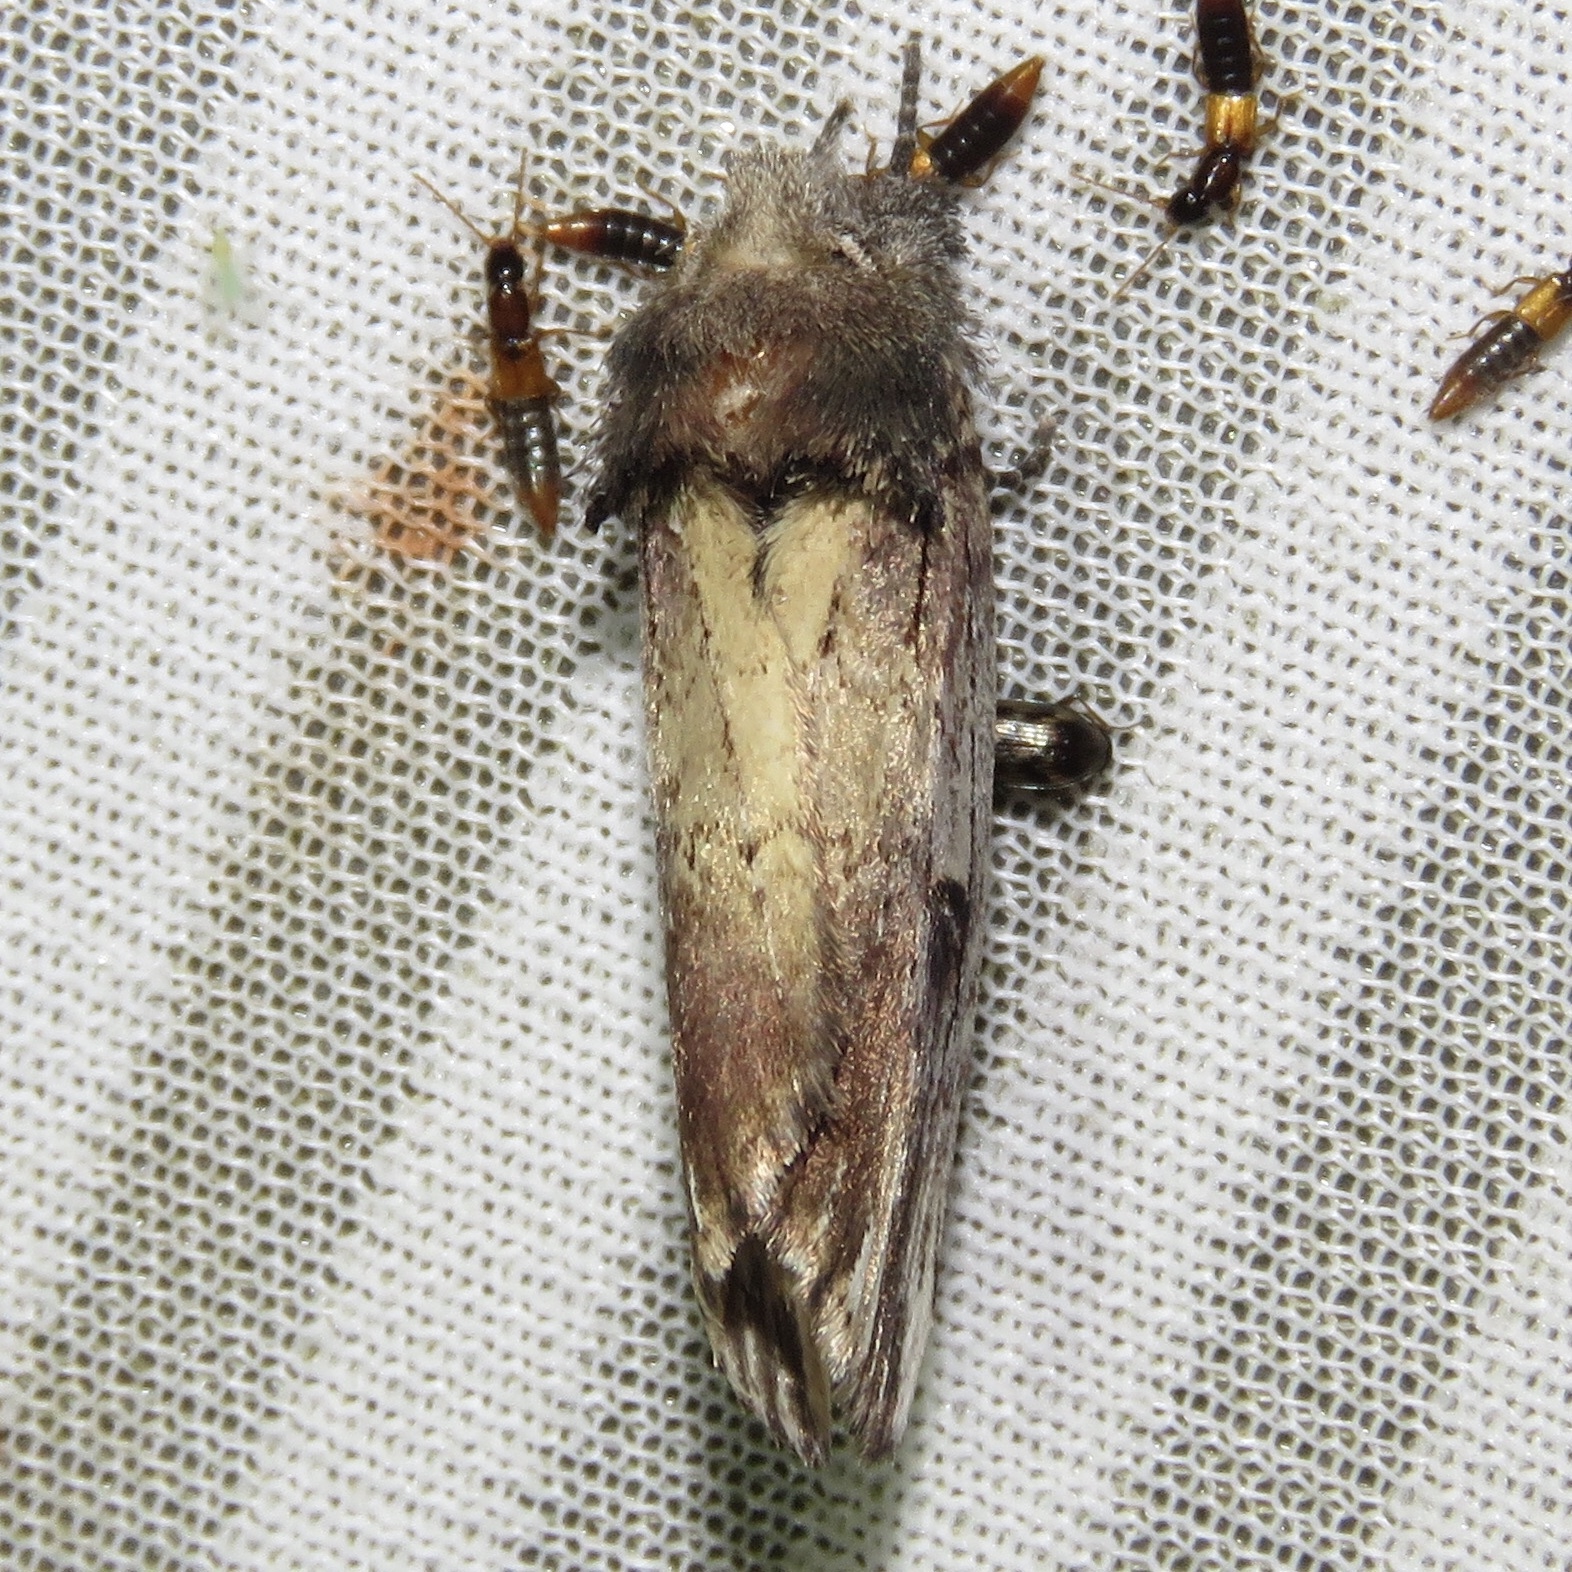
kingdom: Animalia
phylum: Arthropoda
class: Insecta
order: Lepidoptera
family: Notodontidae
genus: Schizura
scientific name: Schizura badia
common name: Chestnut schizura
